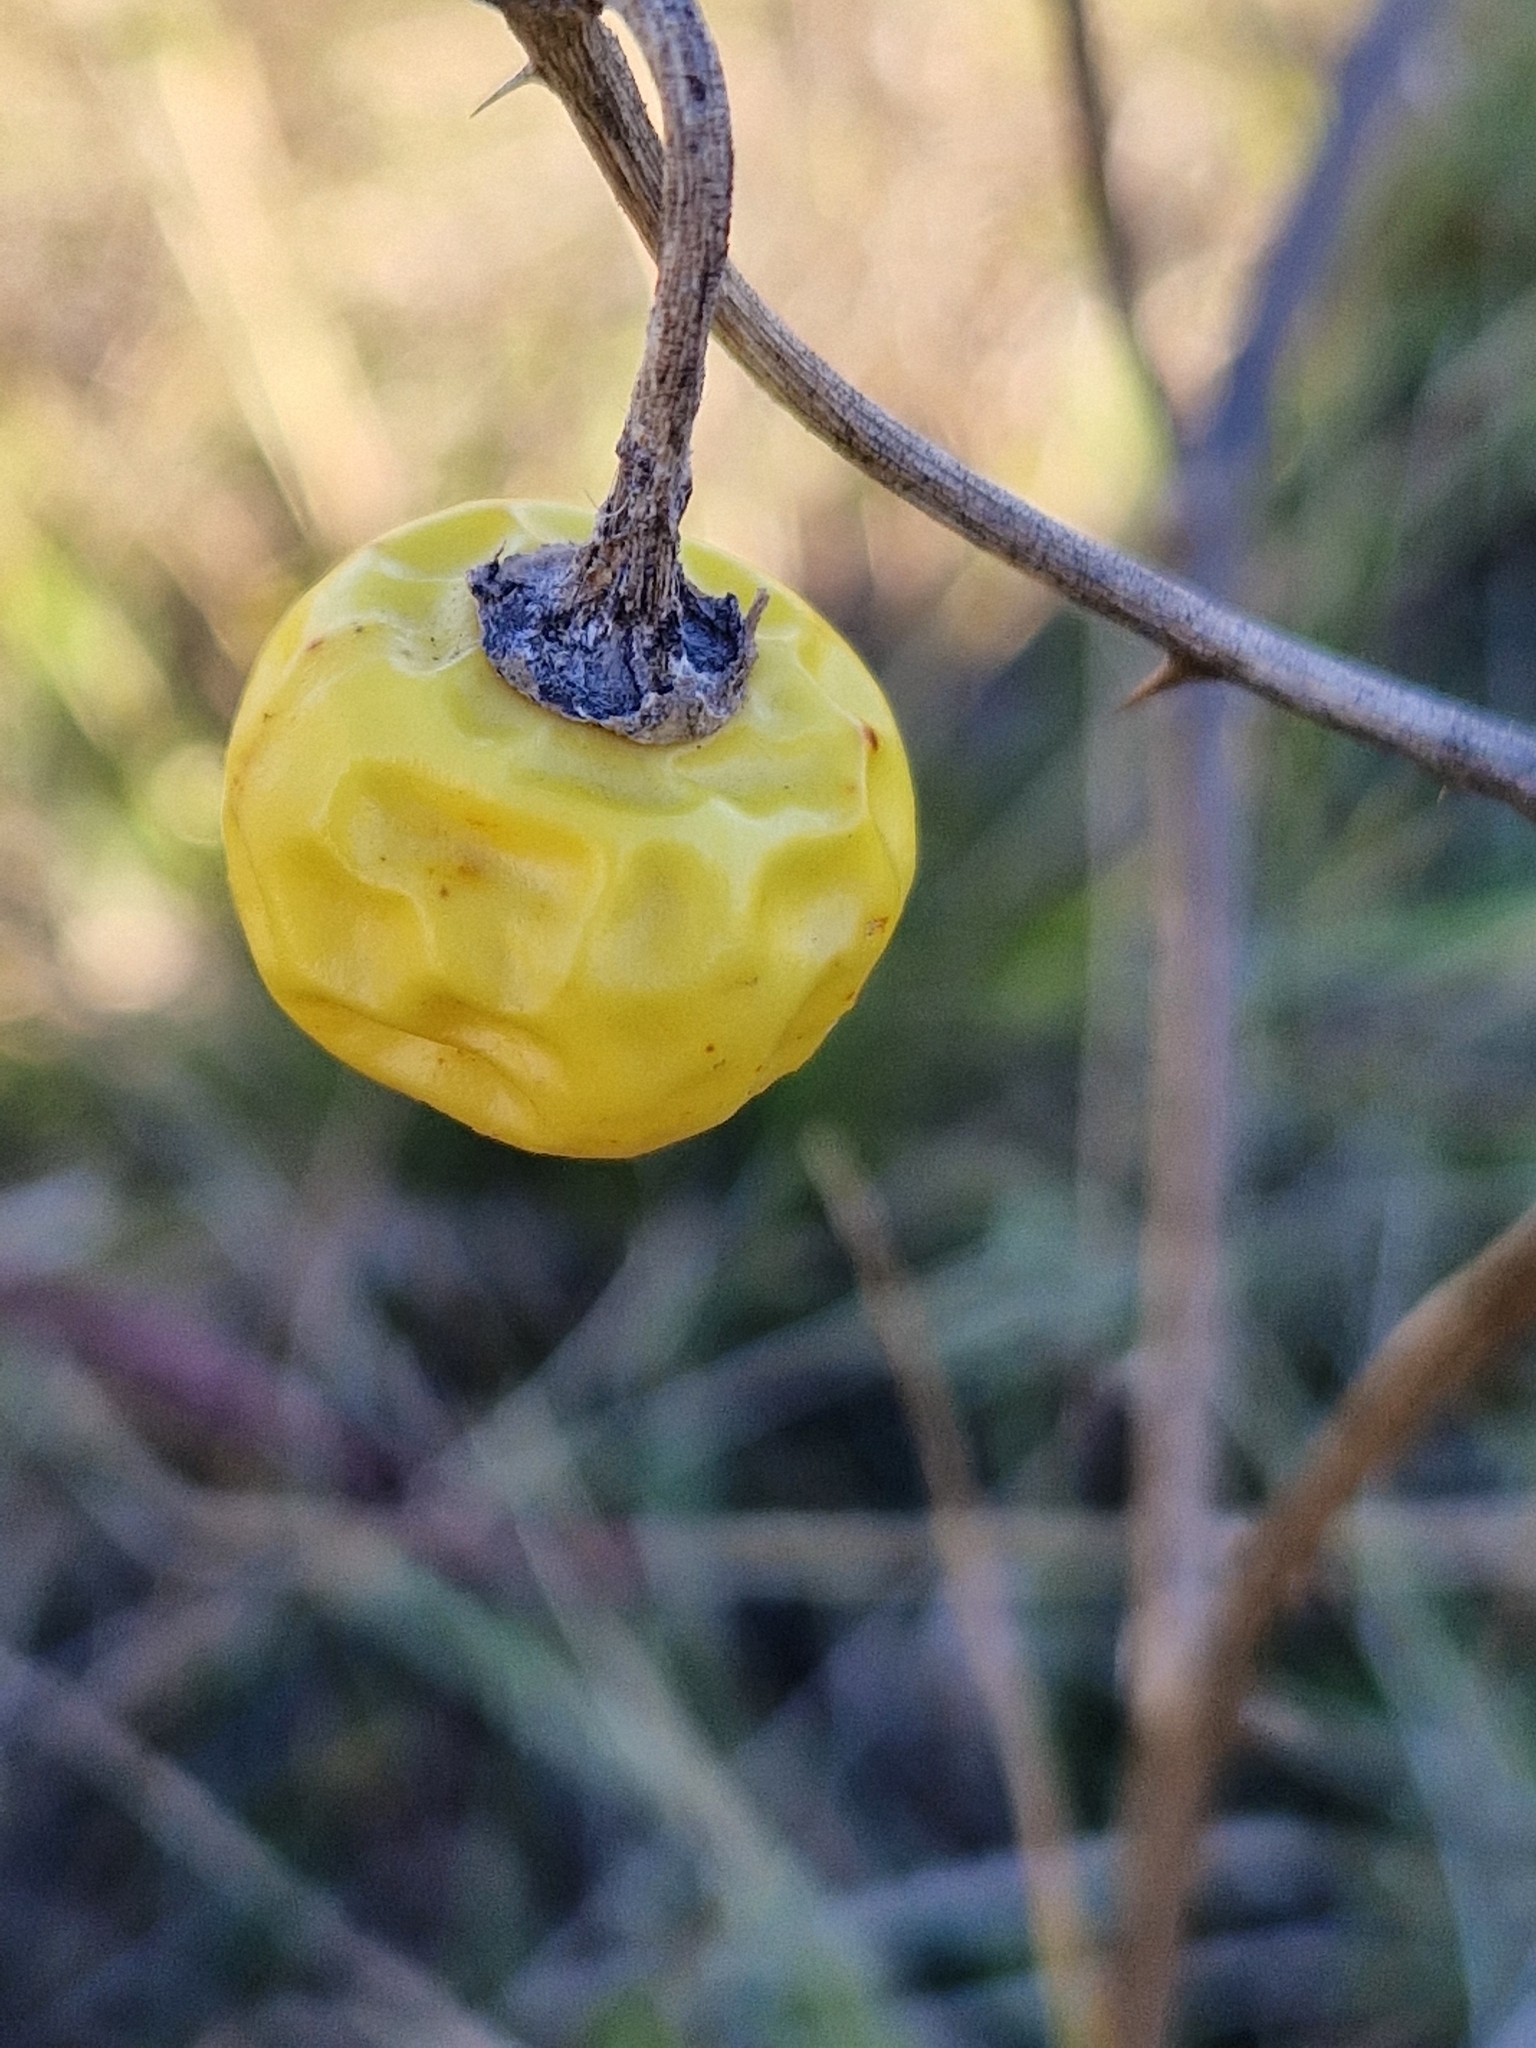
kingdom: Plantae
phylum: Tracheophyta
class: Magnoliopsida
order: Solanales
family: Solanaceae
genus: Solanum
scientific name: Solanum elaeagnifolium
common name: Silverleaf nightshade
